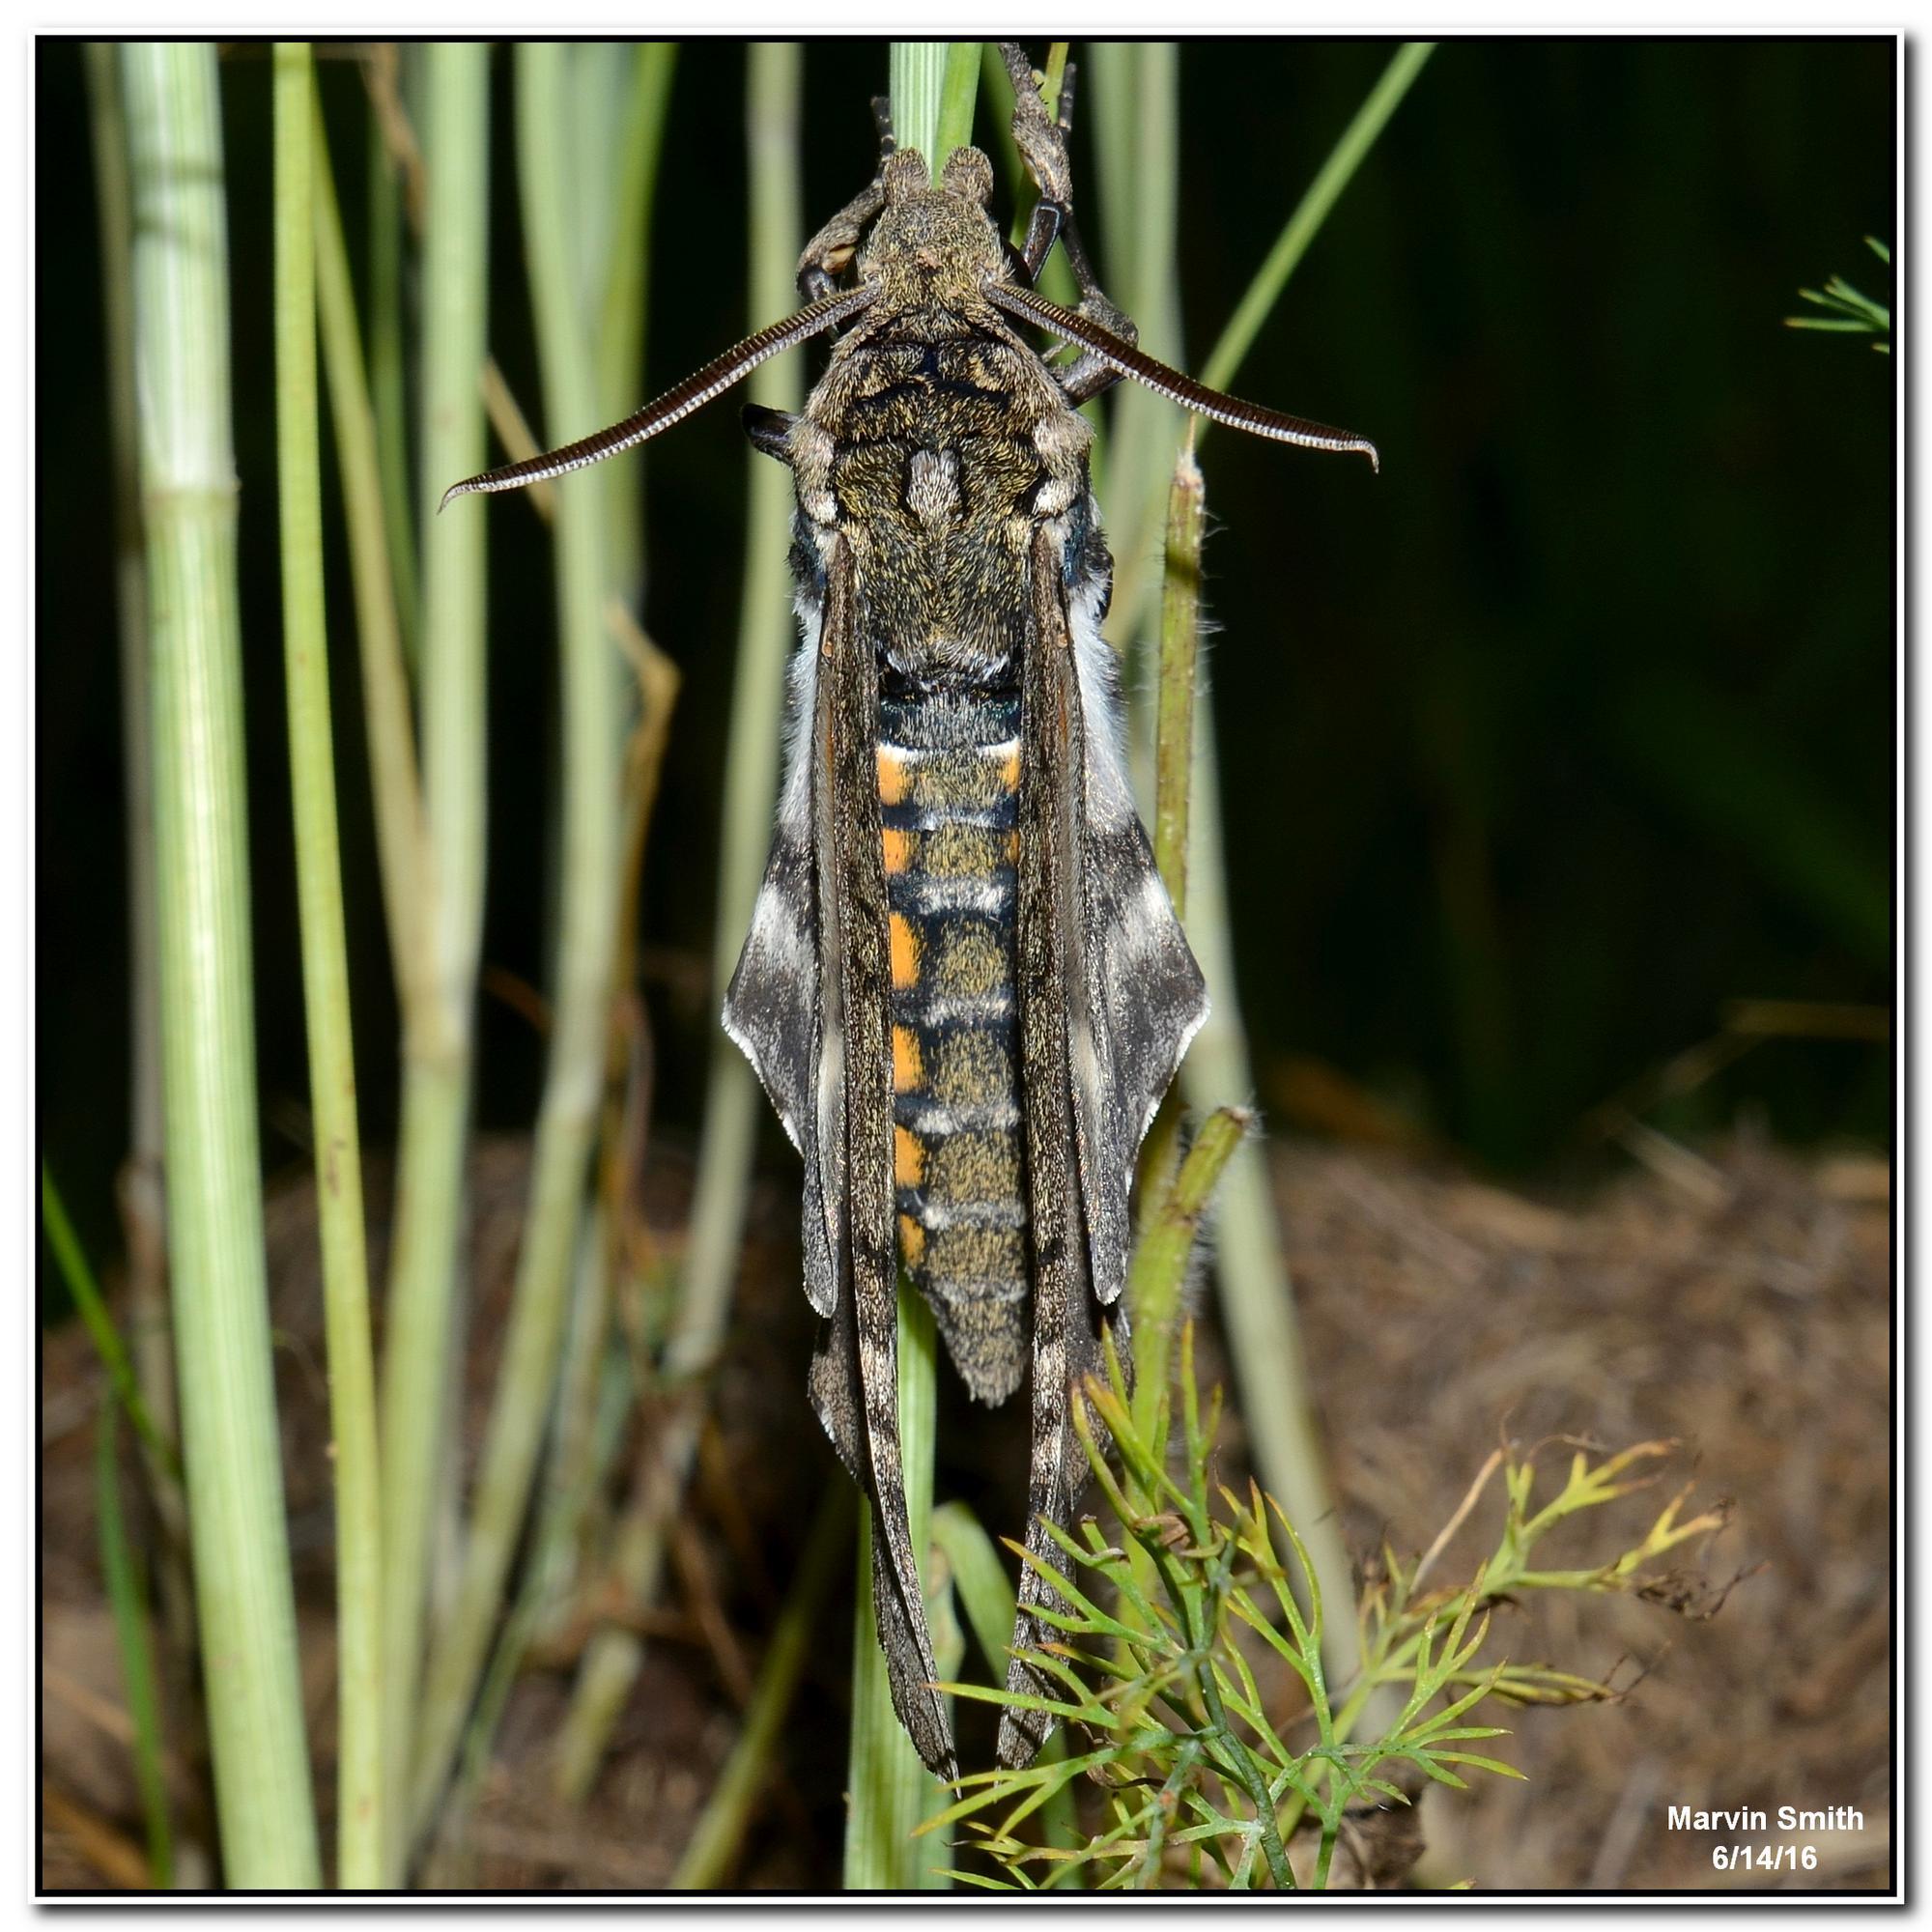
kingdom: Animalia
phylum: Arthropoda
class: Insecta
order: Lepidoptera
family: Sphingidae
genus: Manduca
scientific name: Manduca sexta
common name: Carolina sphinx
